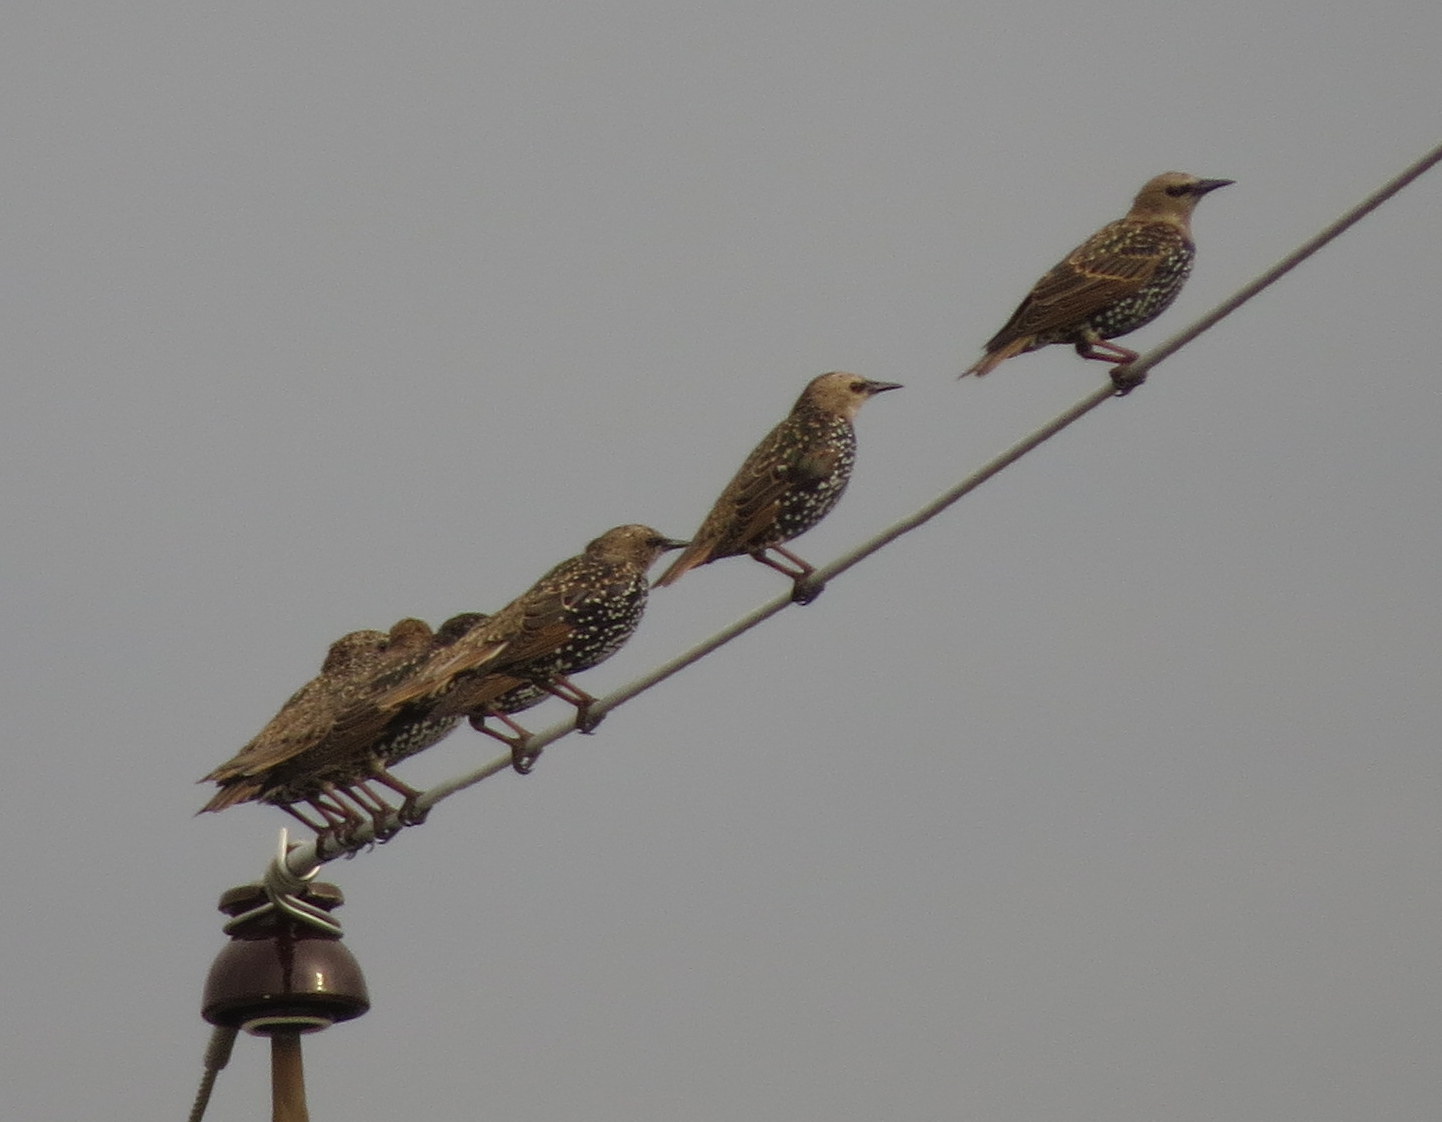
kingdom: Animalia
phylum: Chordata
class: Aves
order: Passeriformes
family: Sturnidae
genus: Sturnus
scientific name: Sturnus vulgaris
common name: Common starling
